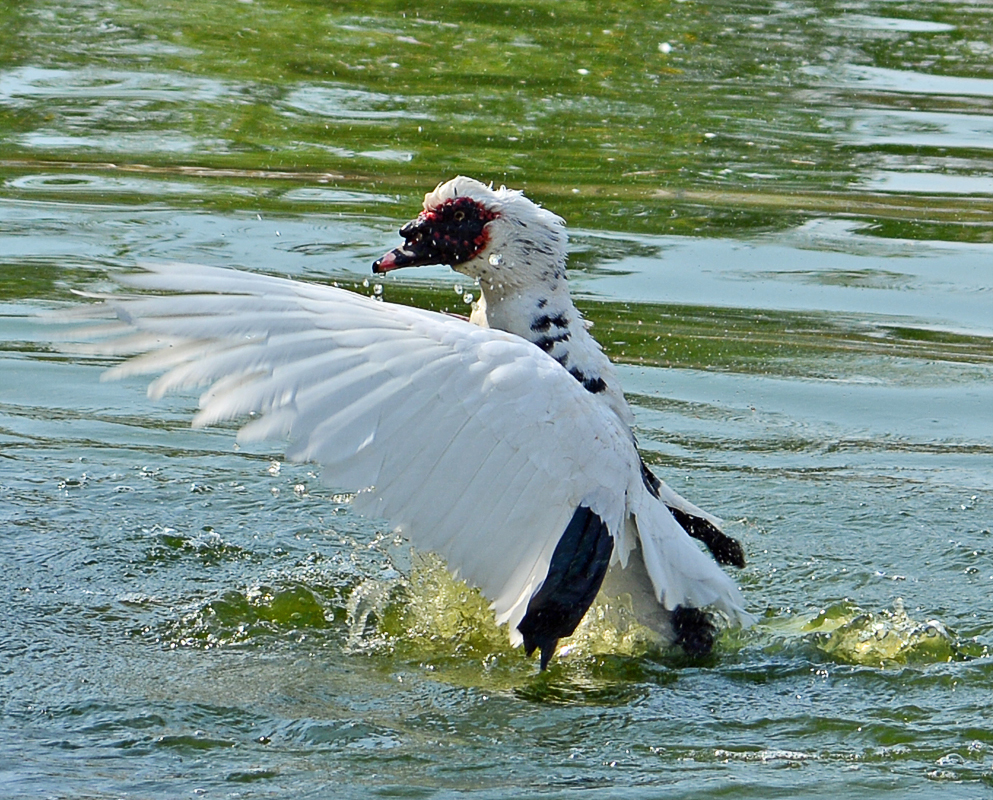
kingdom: Animalia
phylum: Chordata
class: Aves
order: Anseriformes
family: Anatidae
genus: Cairina
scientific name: Cairina moschata
